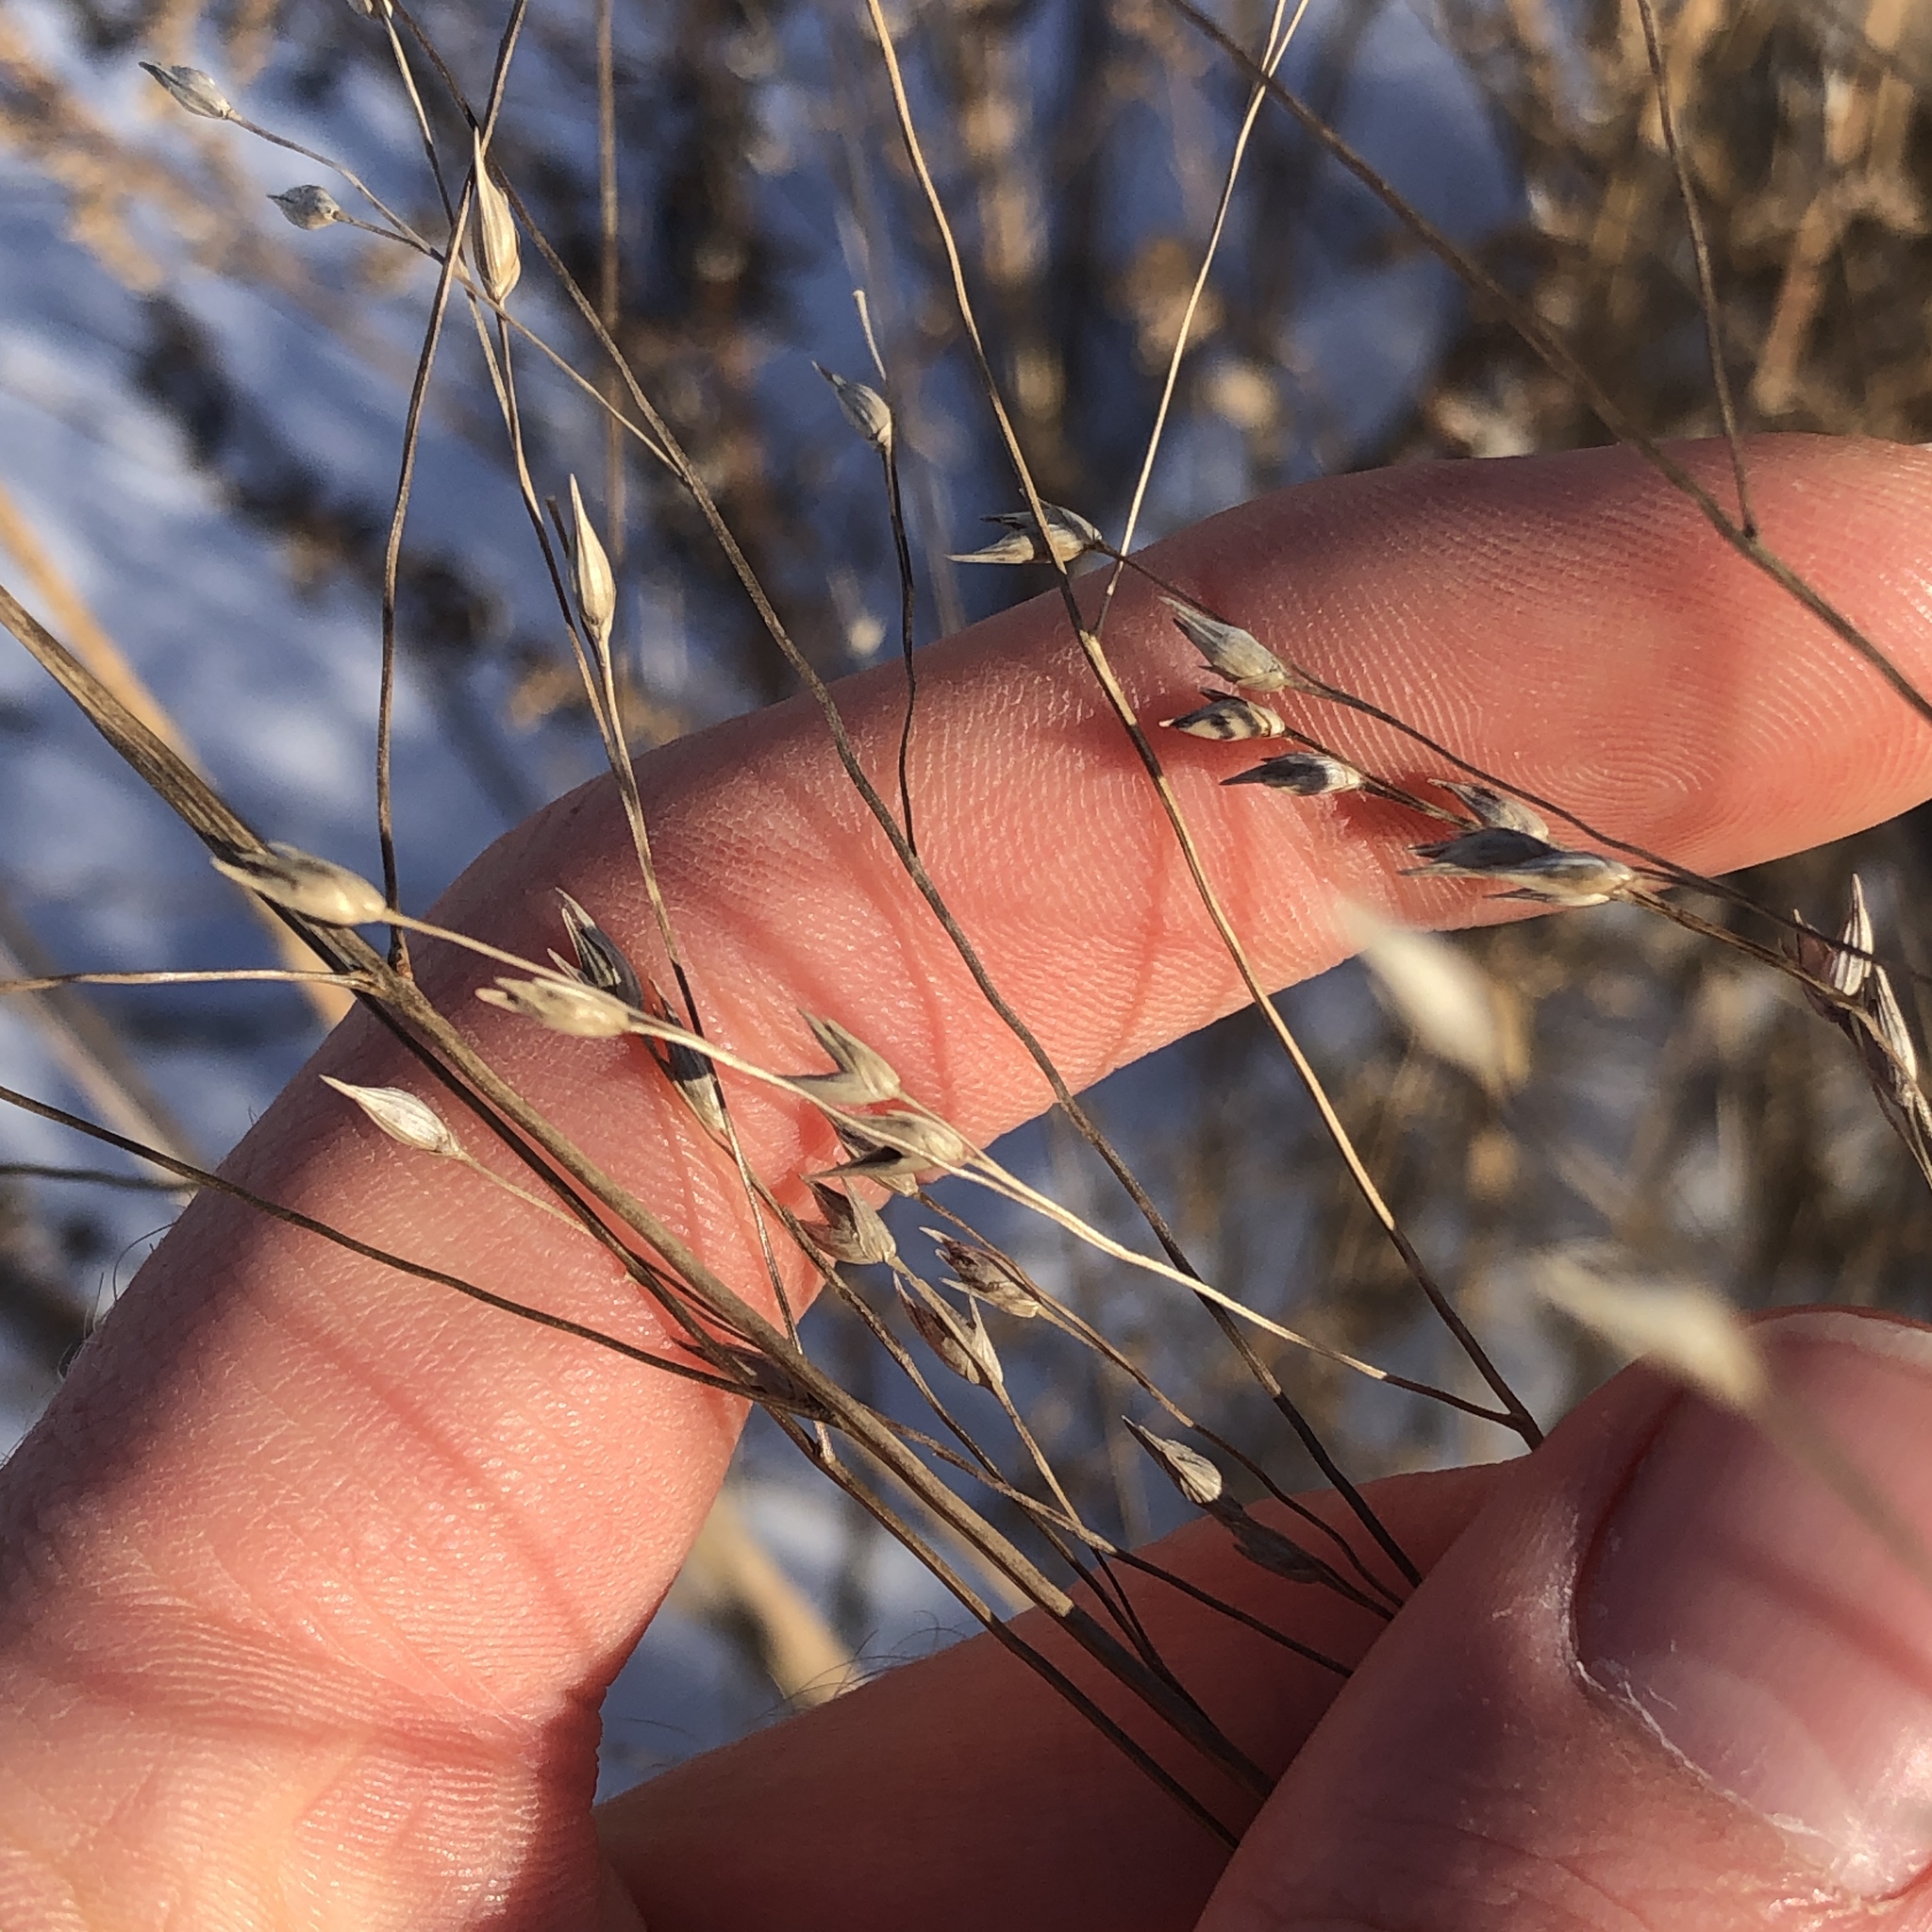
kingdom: Plantae
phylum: Tracheophyta
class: Liliopsida
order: Poales
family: Poaceae
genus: Panicum
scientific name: Panicum virgatum
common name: Switchgrass
